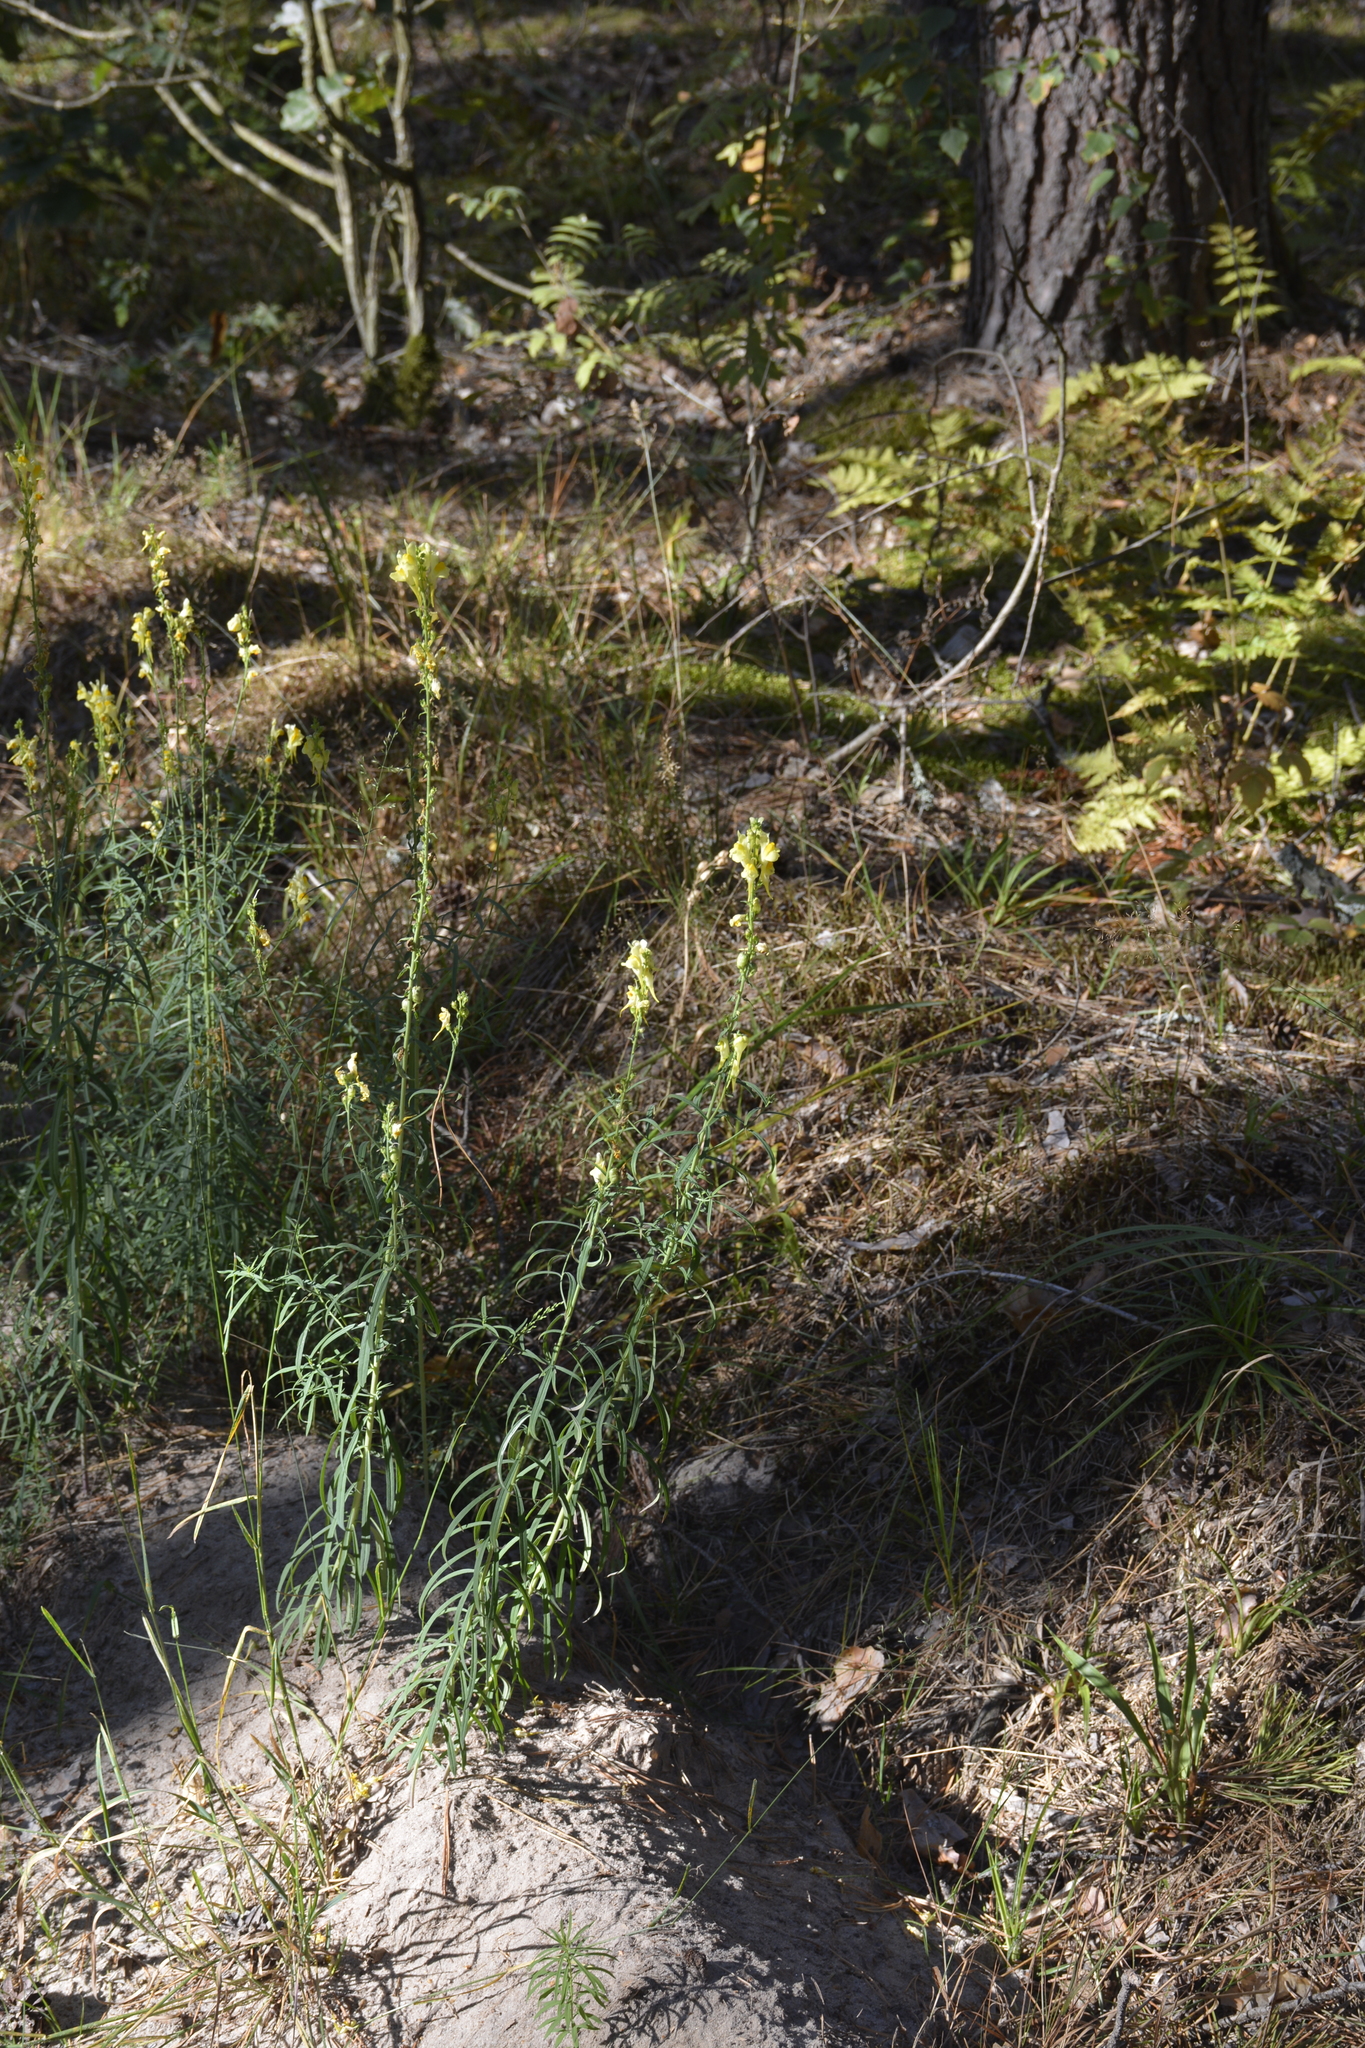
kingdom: Plantae
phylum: Tracheophyta
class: Magnoliopsida
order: Lamiales
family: Plantaginaceae
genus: Linaria
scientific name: Linaria vulgaris
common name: Butter and eggs
